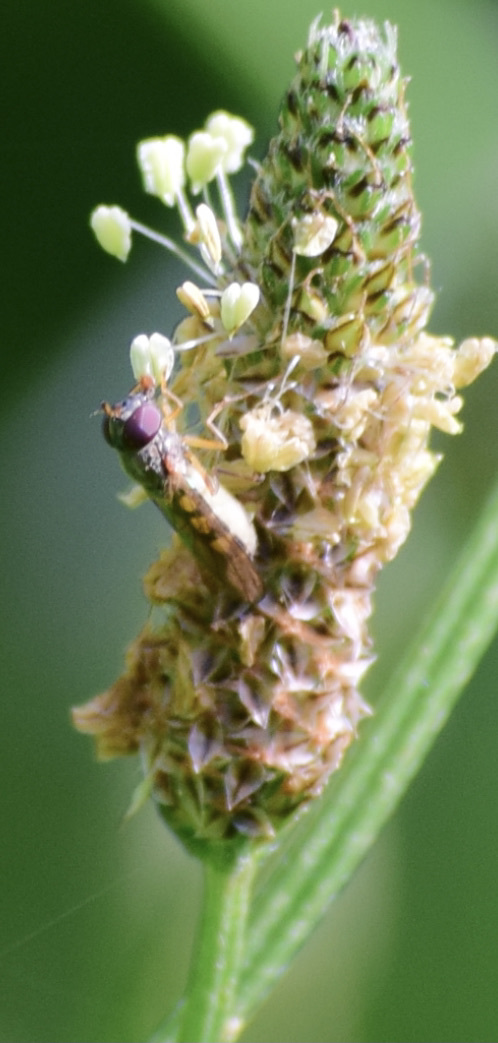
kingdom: Animalia
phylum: Arthropoda
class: Insecta
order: Diptera
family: Syrphidae
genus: Melanostoma
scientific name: Melanostoma mellina
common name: Hover fly
